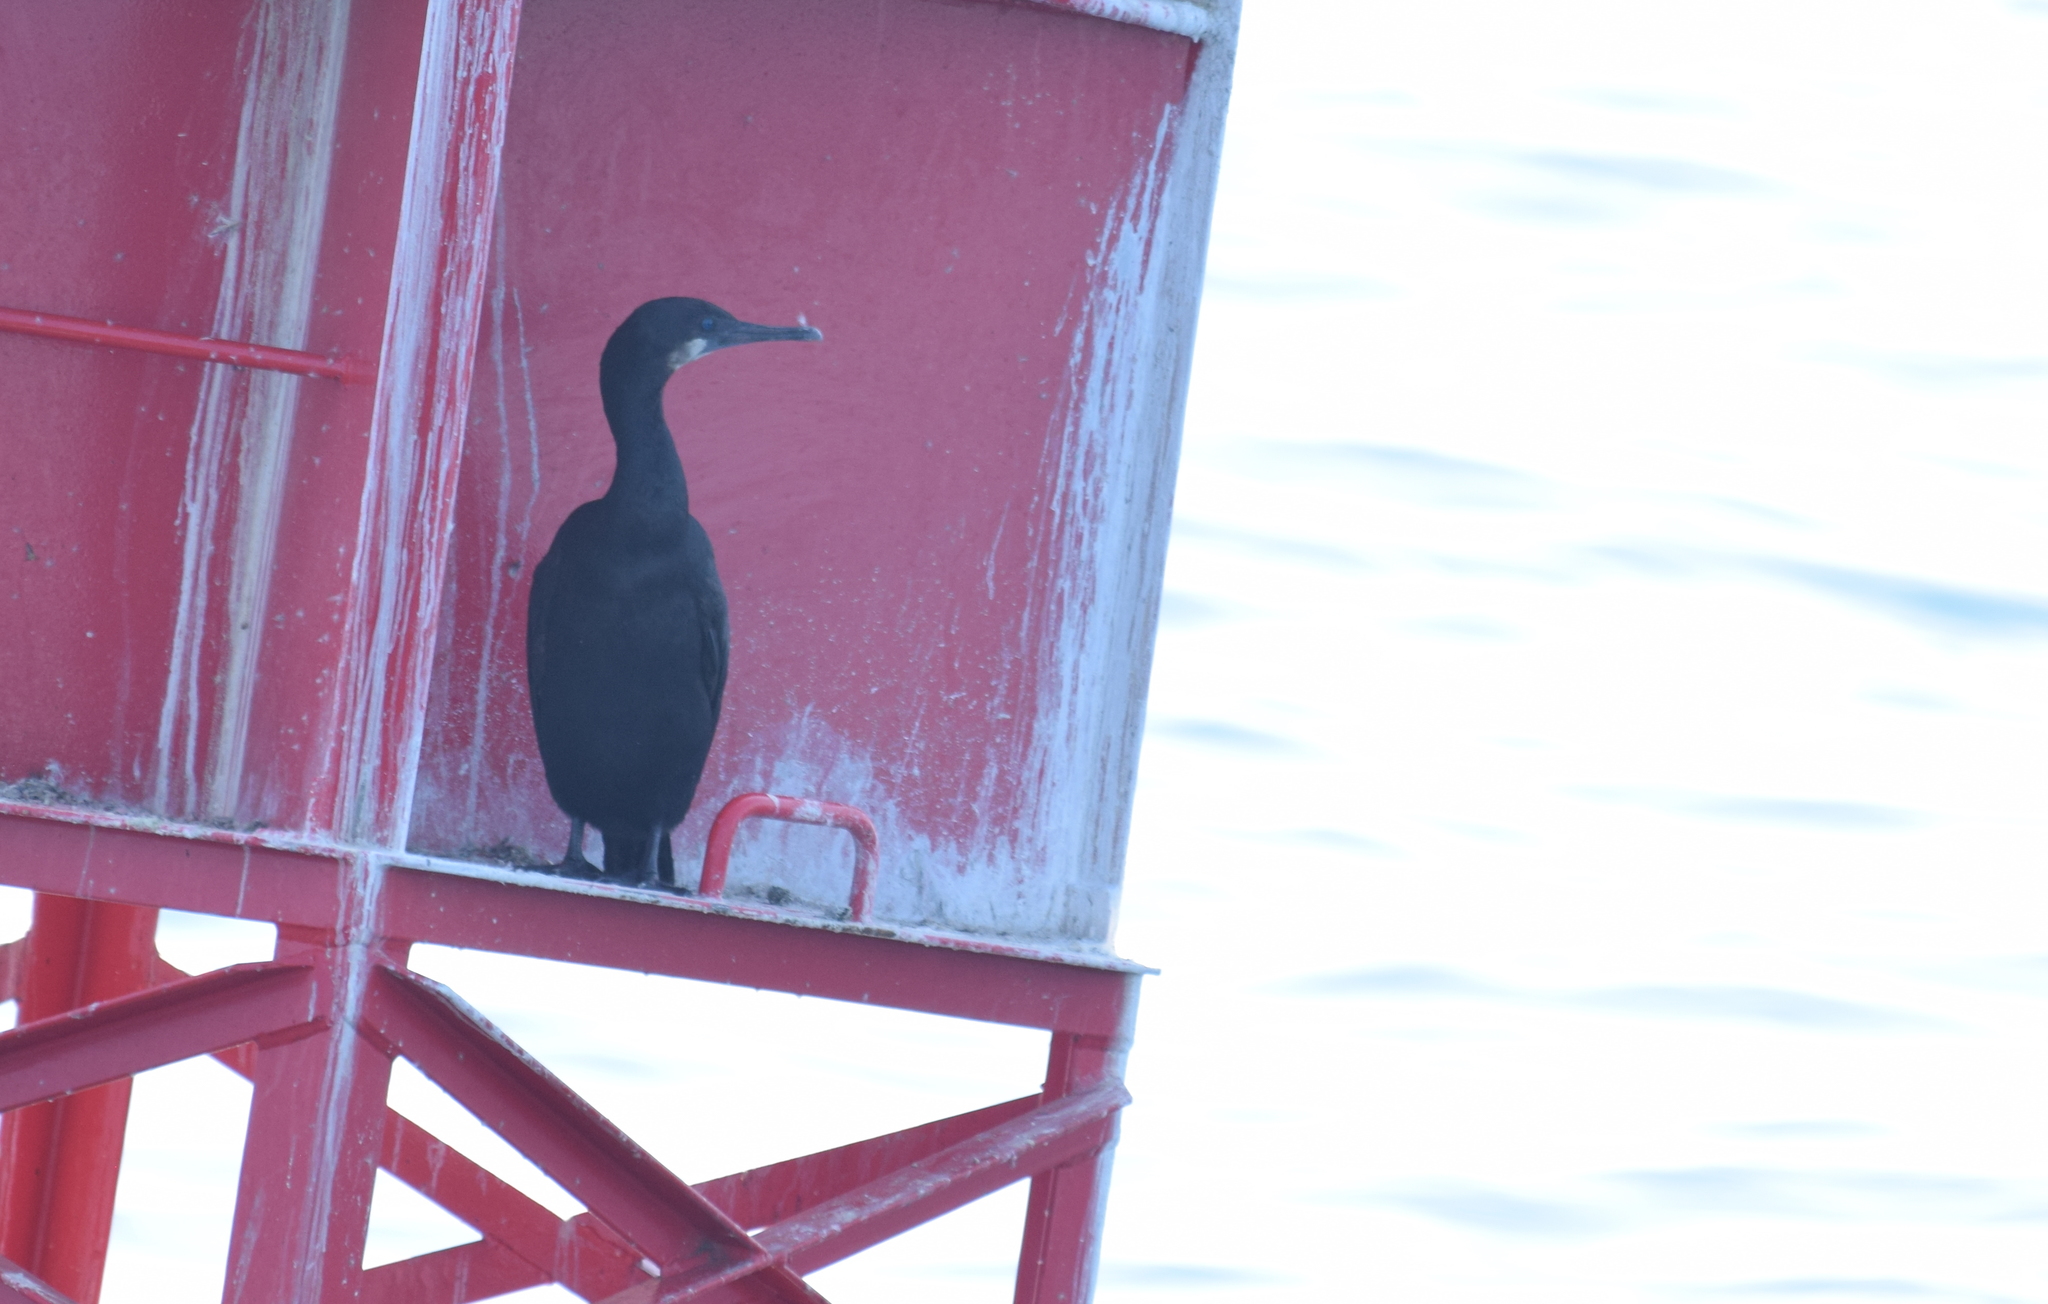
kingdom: Animalia
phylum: Chordata
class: Aves
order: Suliformes
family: Phalacrocoracidae
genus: Urile
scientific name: Urile penicillatus
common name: Brandt's cormorant
